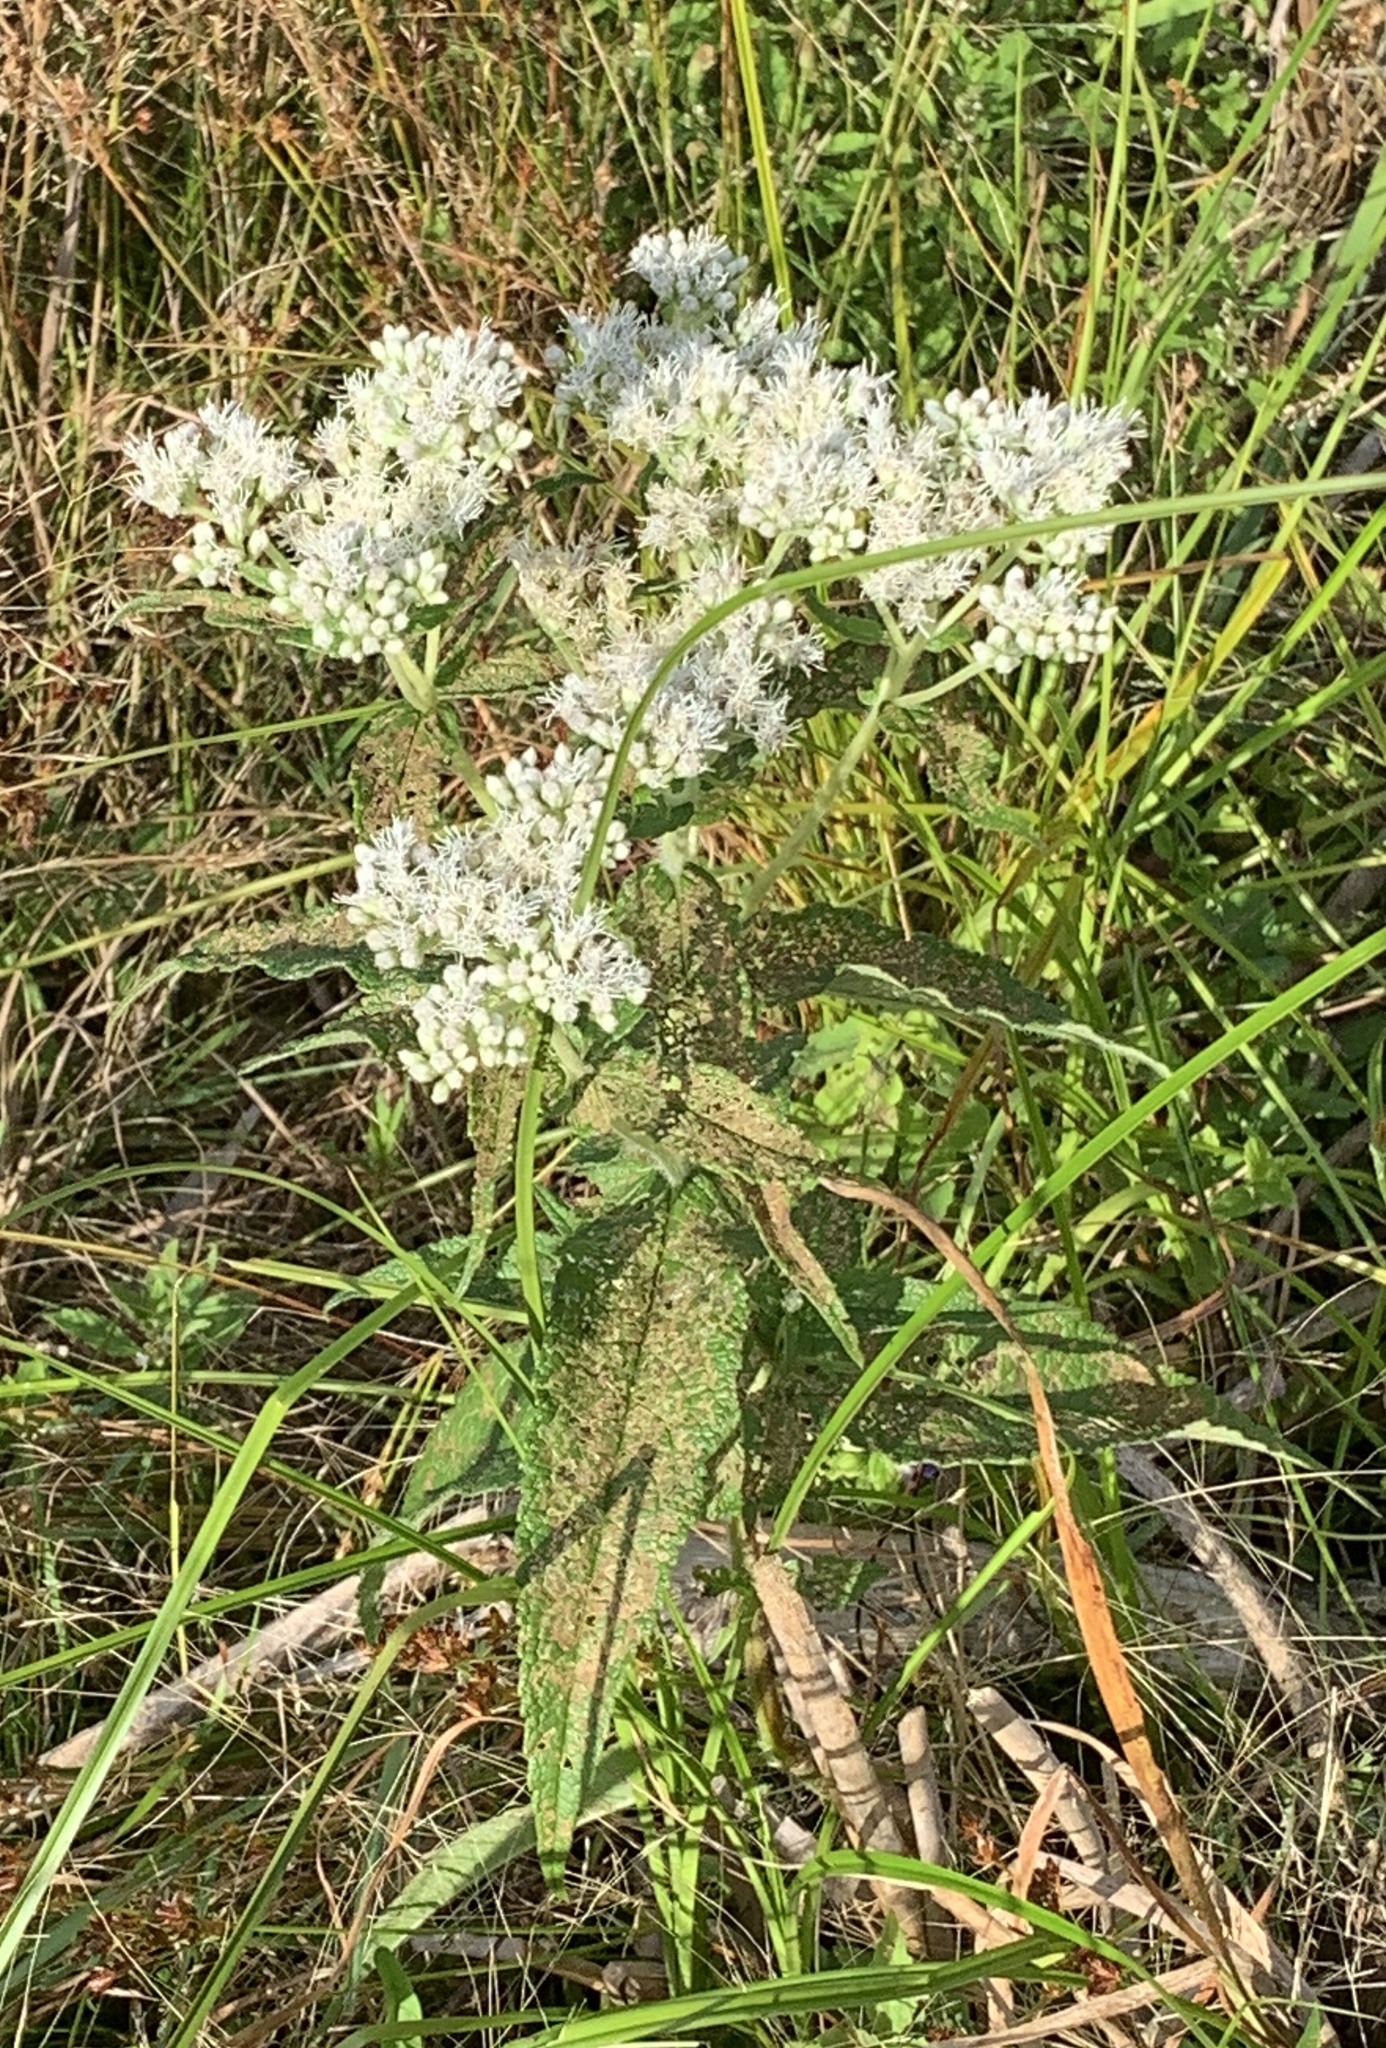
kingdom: Plantae
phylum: Tracheophyta
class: Magnoliopsida
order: Asterales
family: Asteraceae
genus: Eupatorium
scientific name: Eupatorium perfoliatum
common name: Boneset
